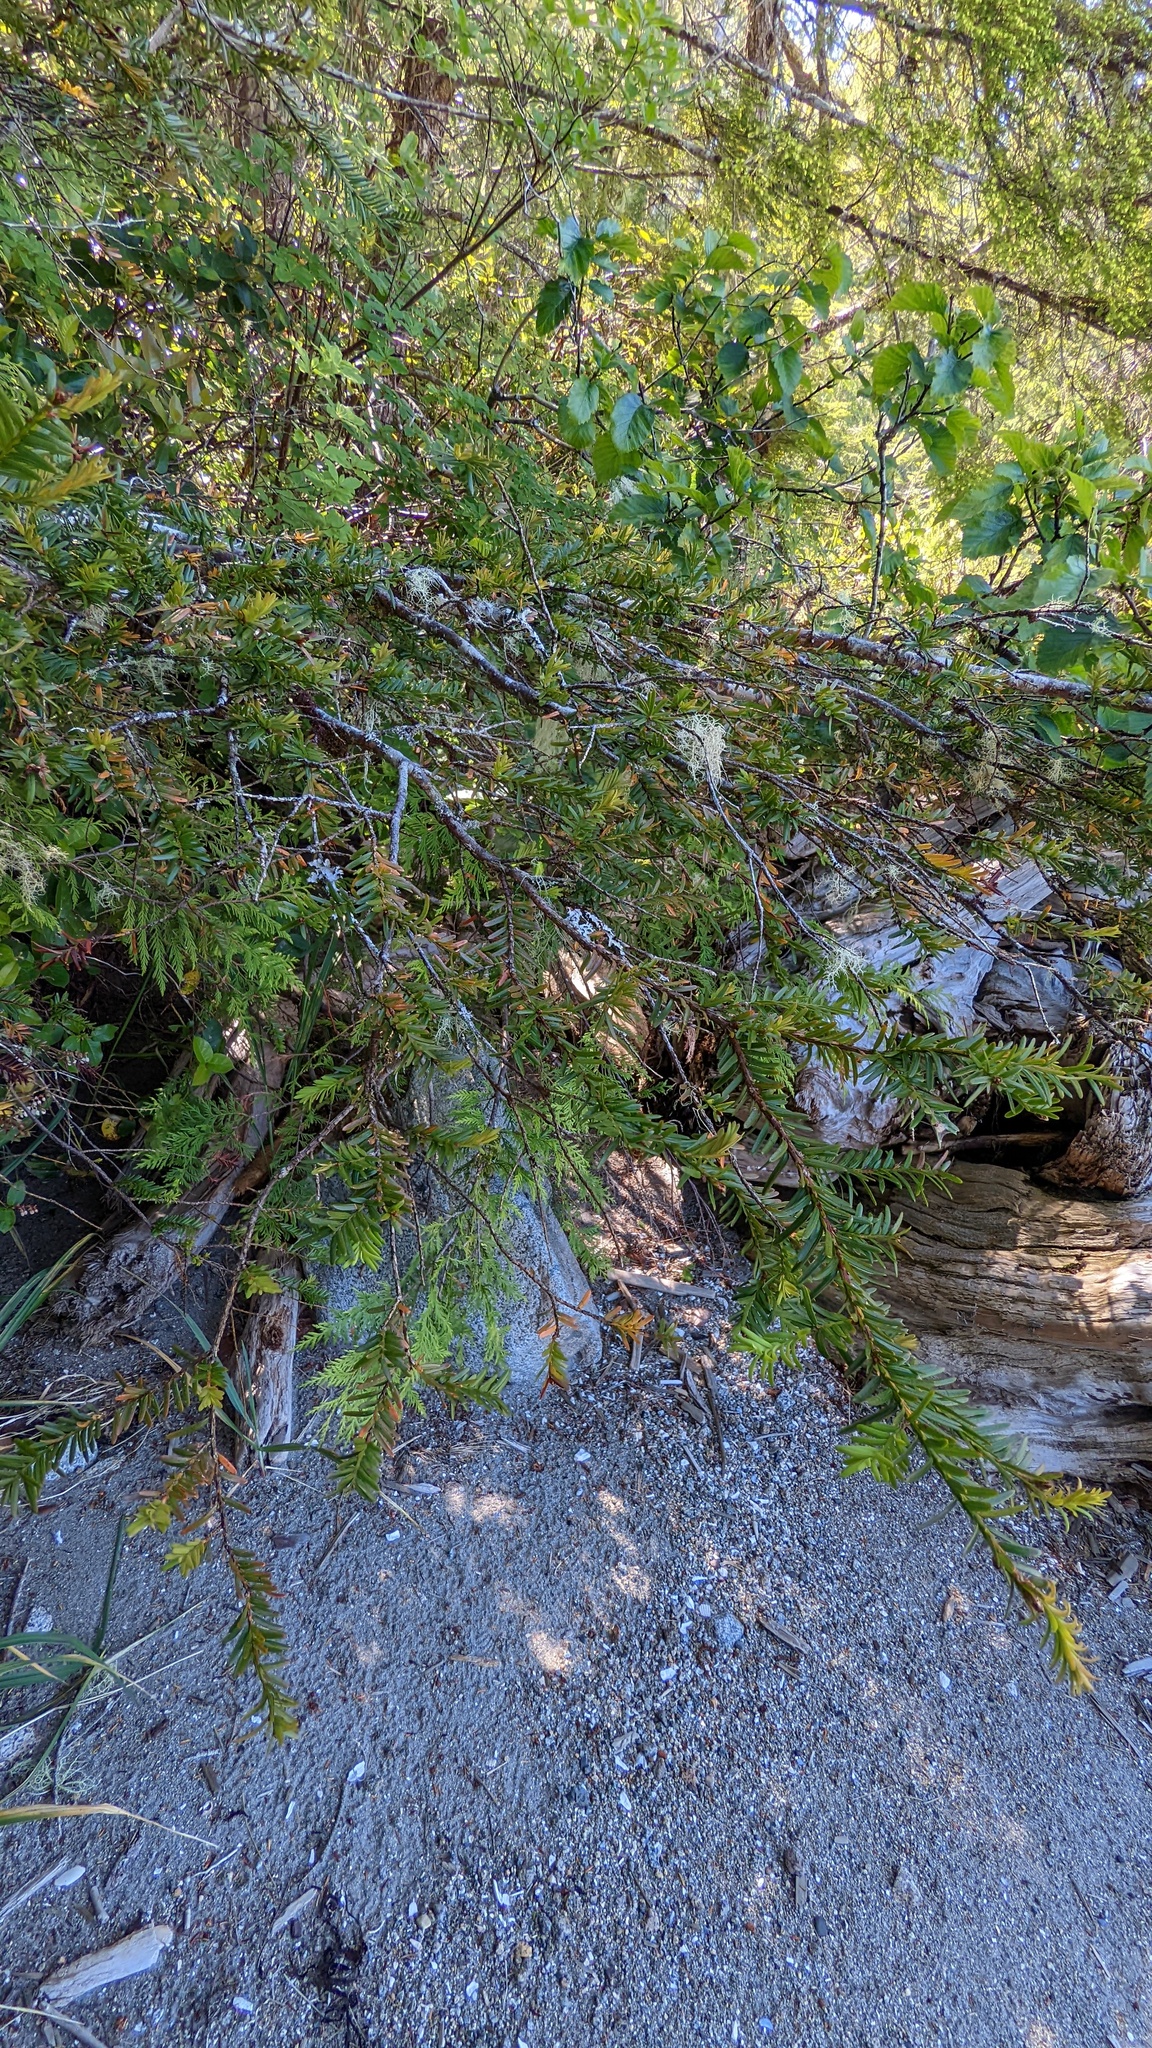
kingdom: Plantae
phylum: Tracheophyta
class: Pinopsida
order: Pinales
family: Taxaceae
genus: Taxus
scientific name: Taxus brevifolia
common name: Pacific yew
